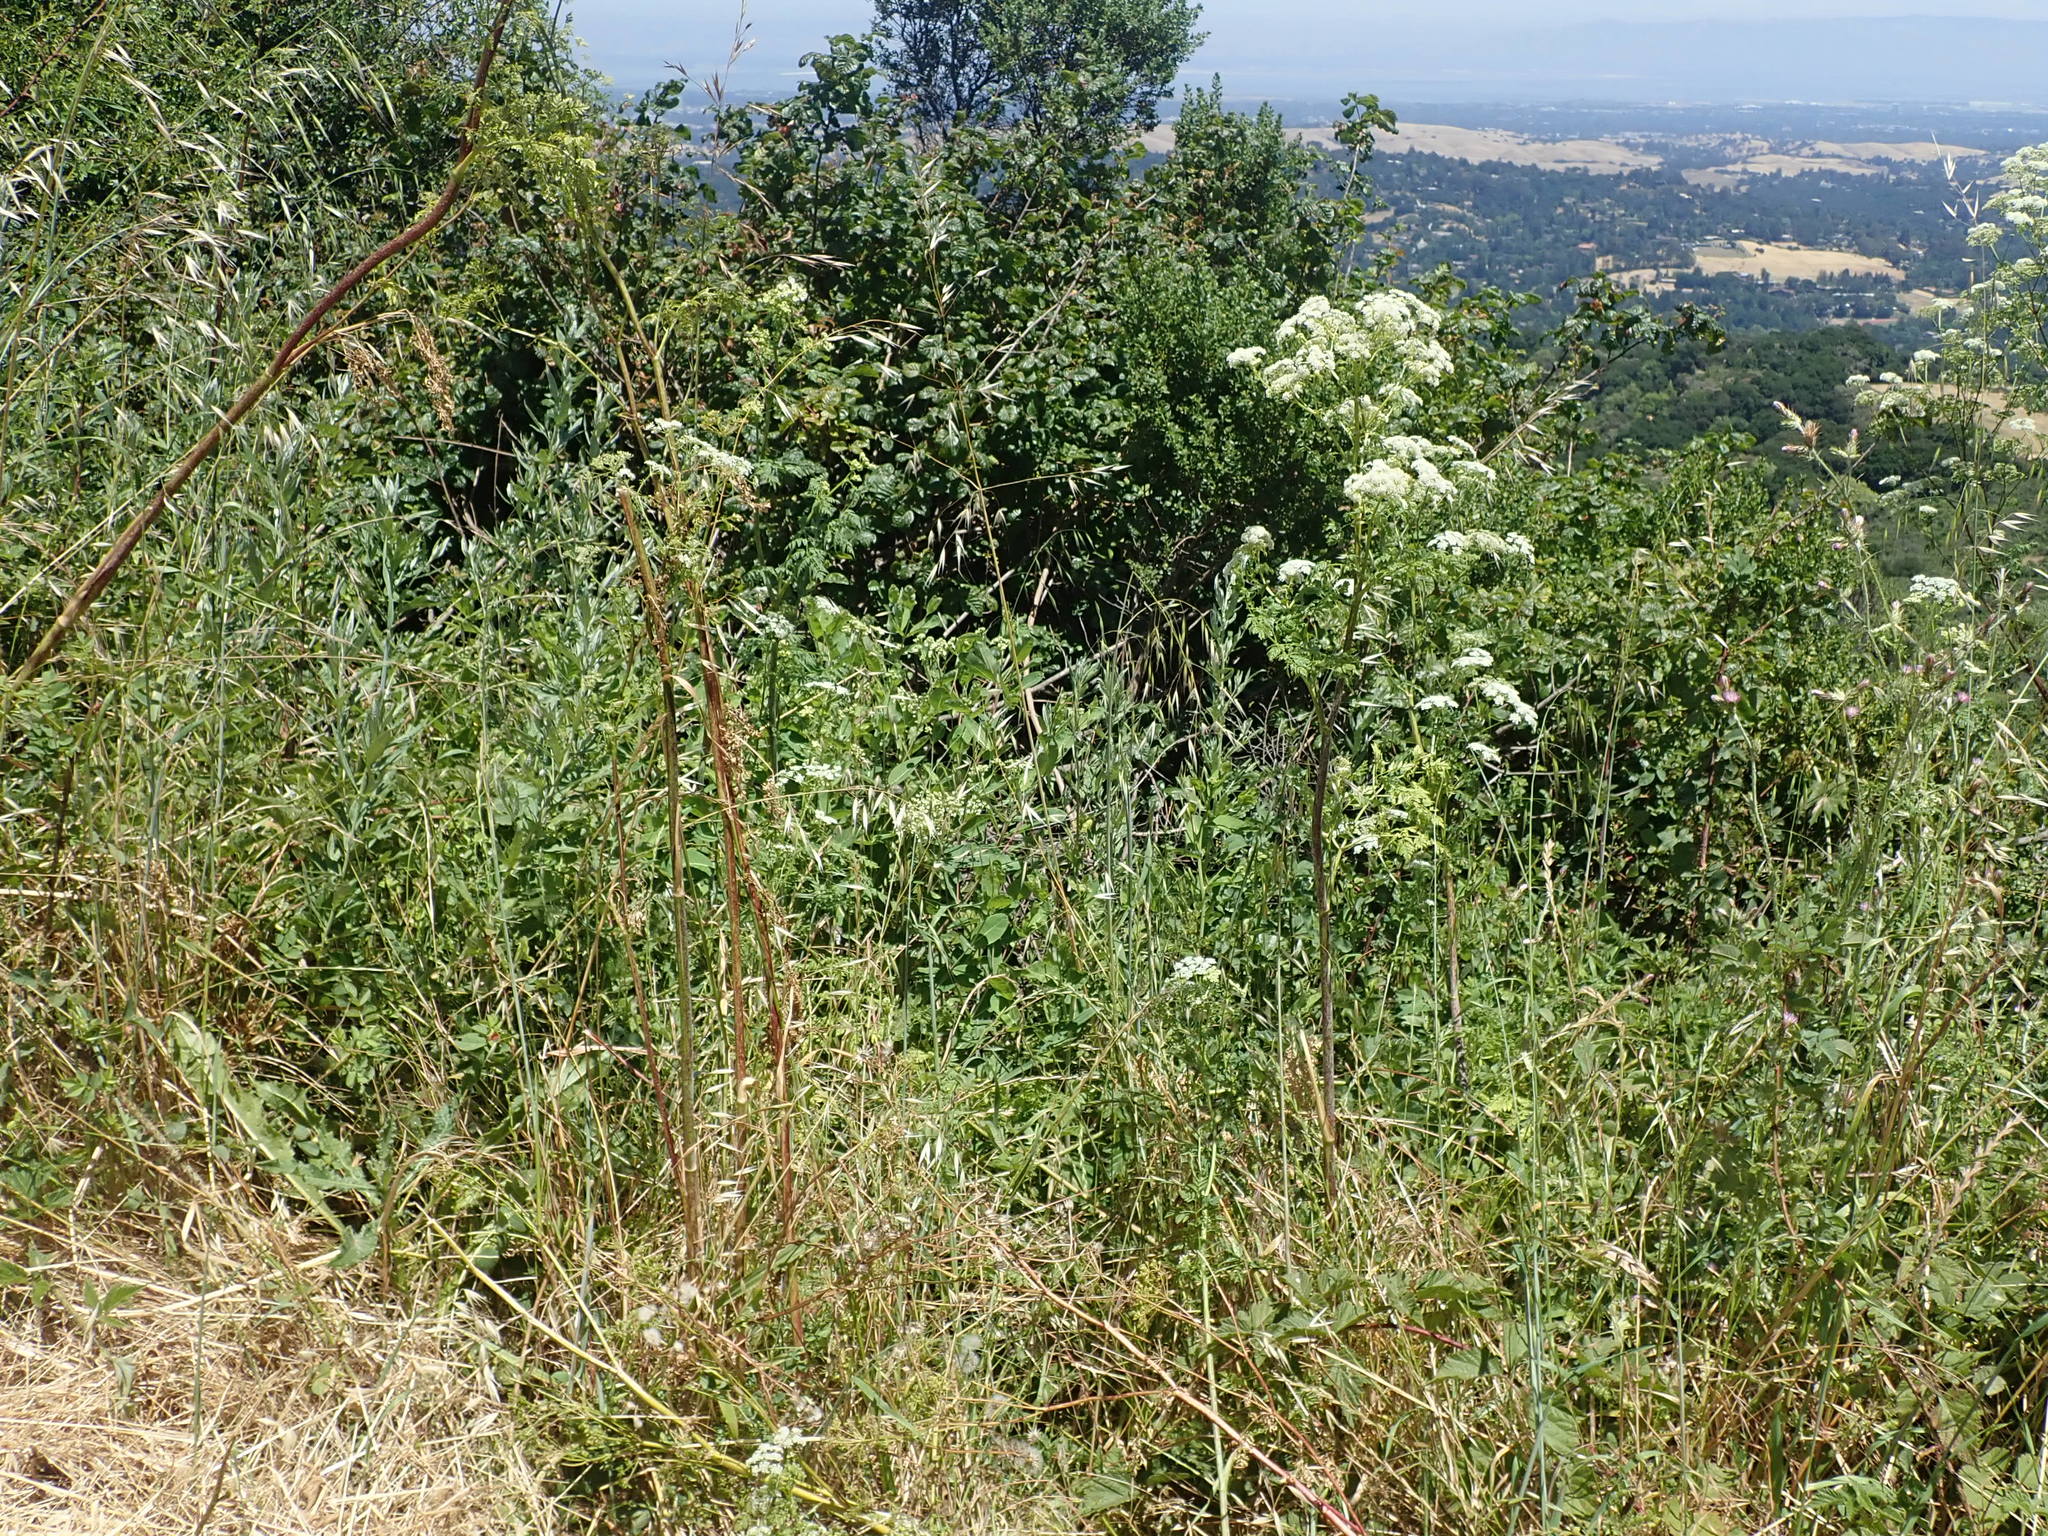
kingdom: Plantae
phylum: Tracheophyta
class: Magnoliopsida
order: Gentianales
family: Apocynaceae
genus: Apocynum
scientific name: Apocynum cannabinum
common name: Hemp dogbane
